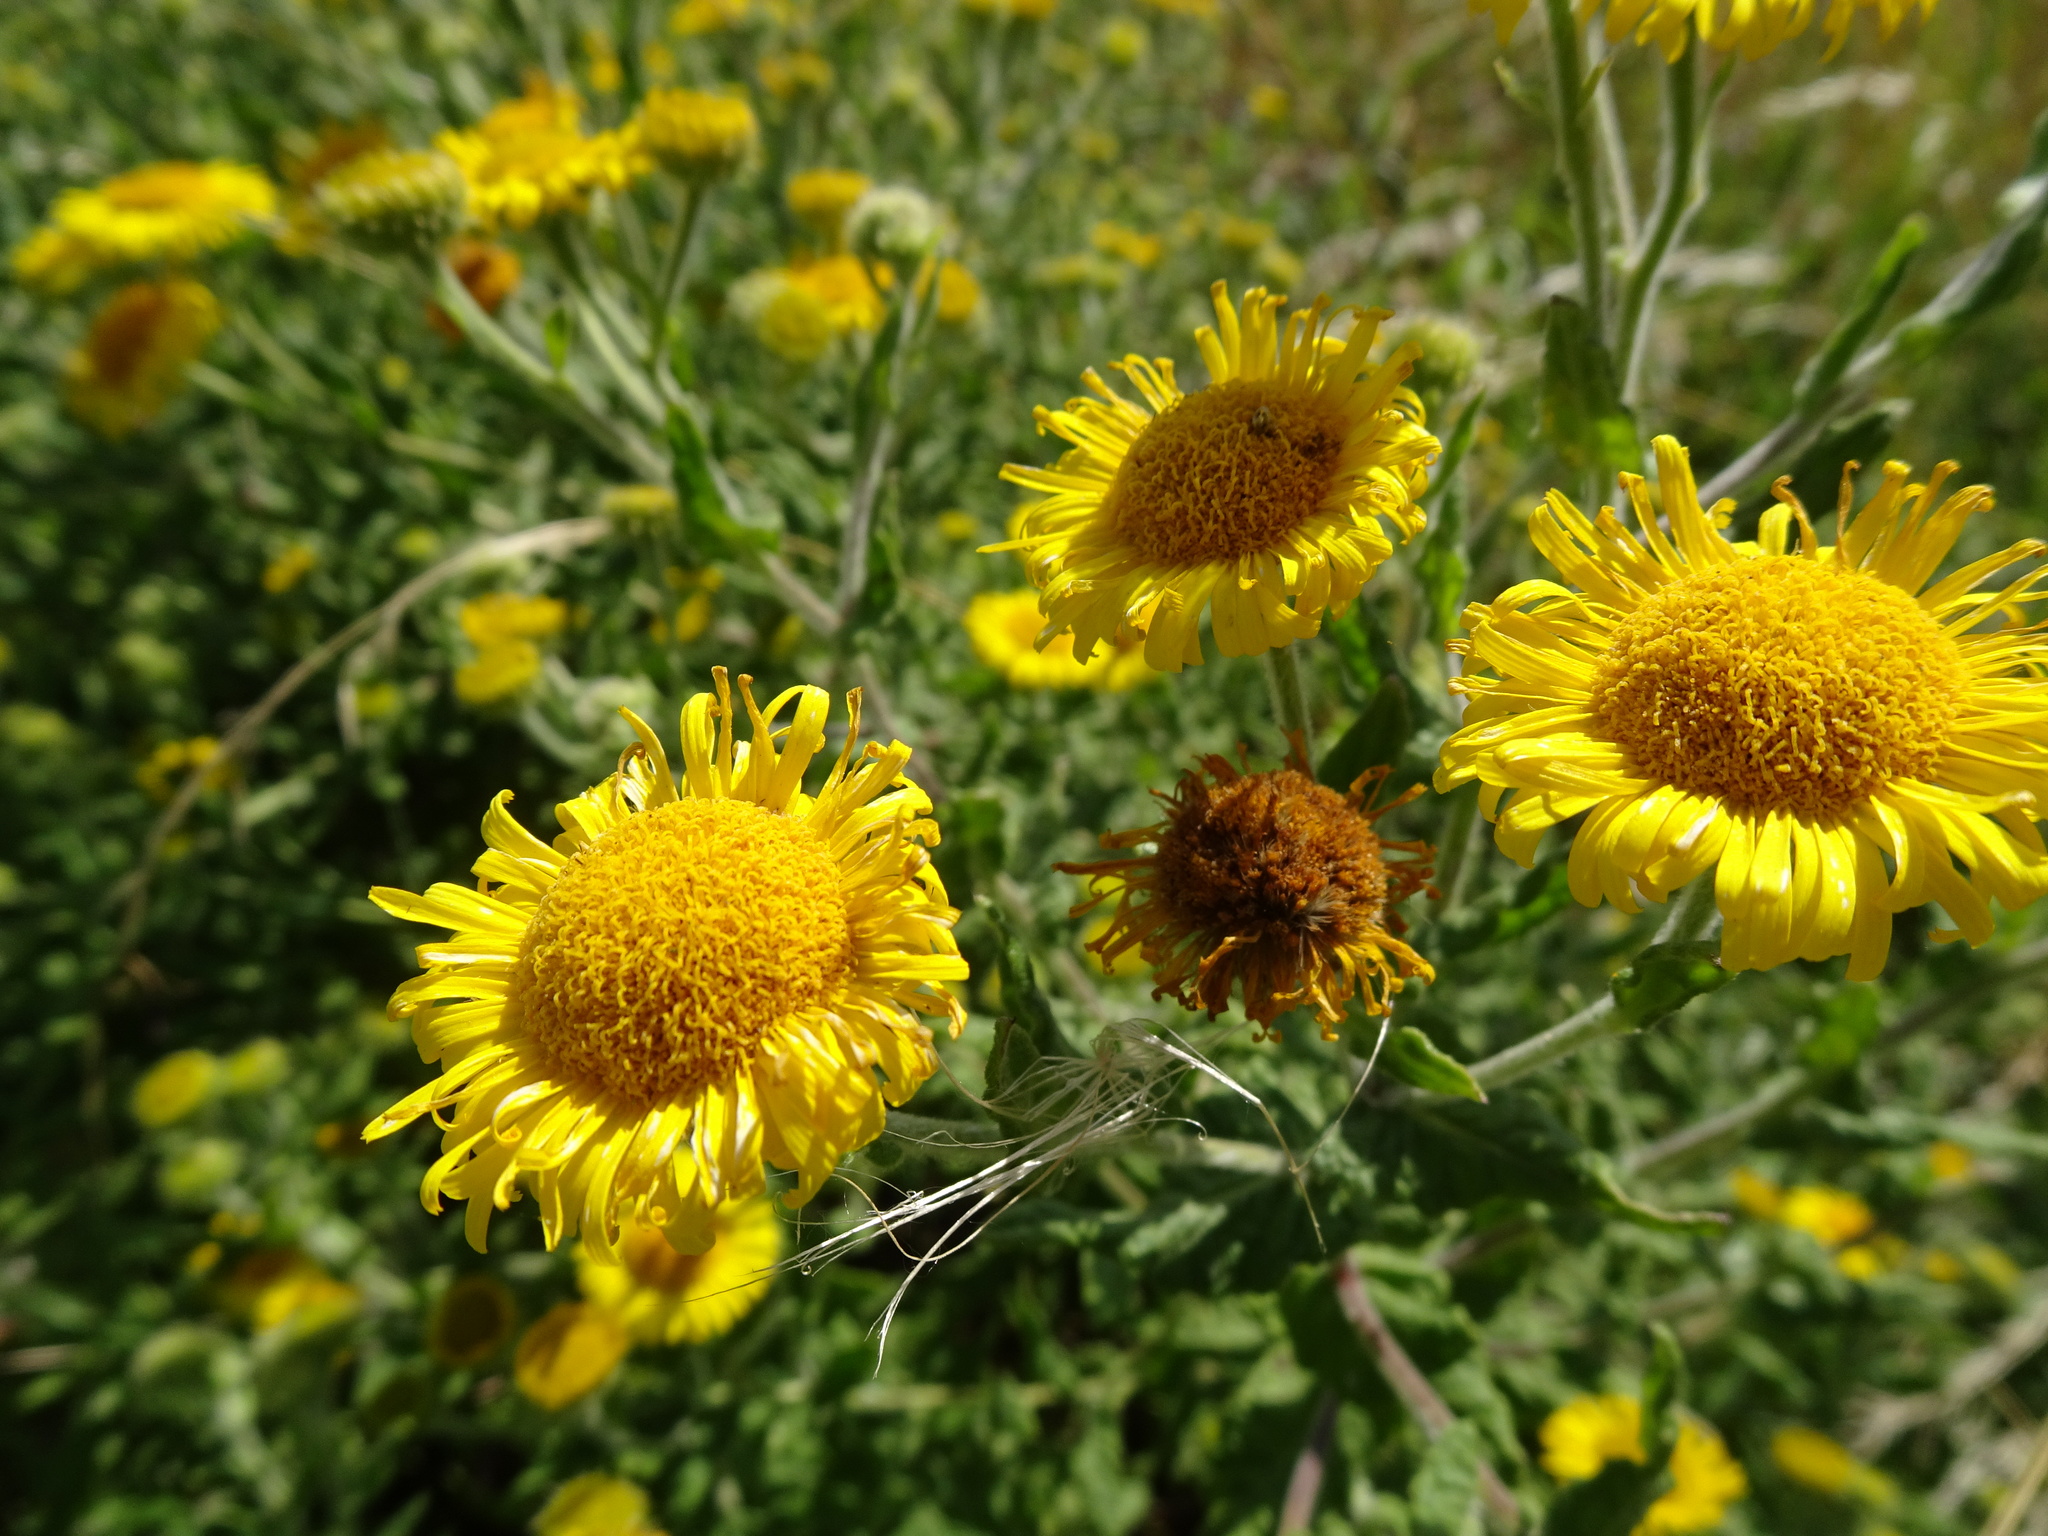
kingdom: Plantae
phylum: Tracheophyta
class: Magnoliopsida
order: Asterales
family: Asteraceae
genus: Pulicaria
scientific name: Pulicaria dysenterica
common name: Common fleabane
